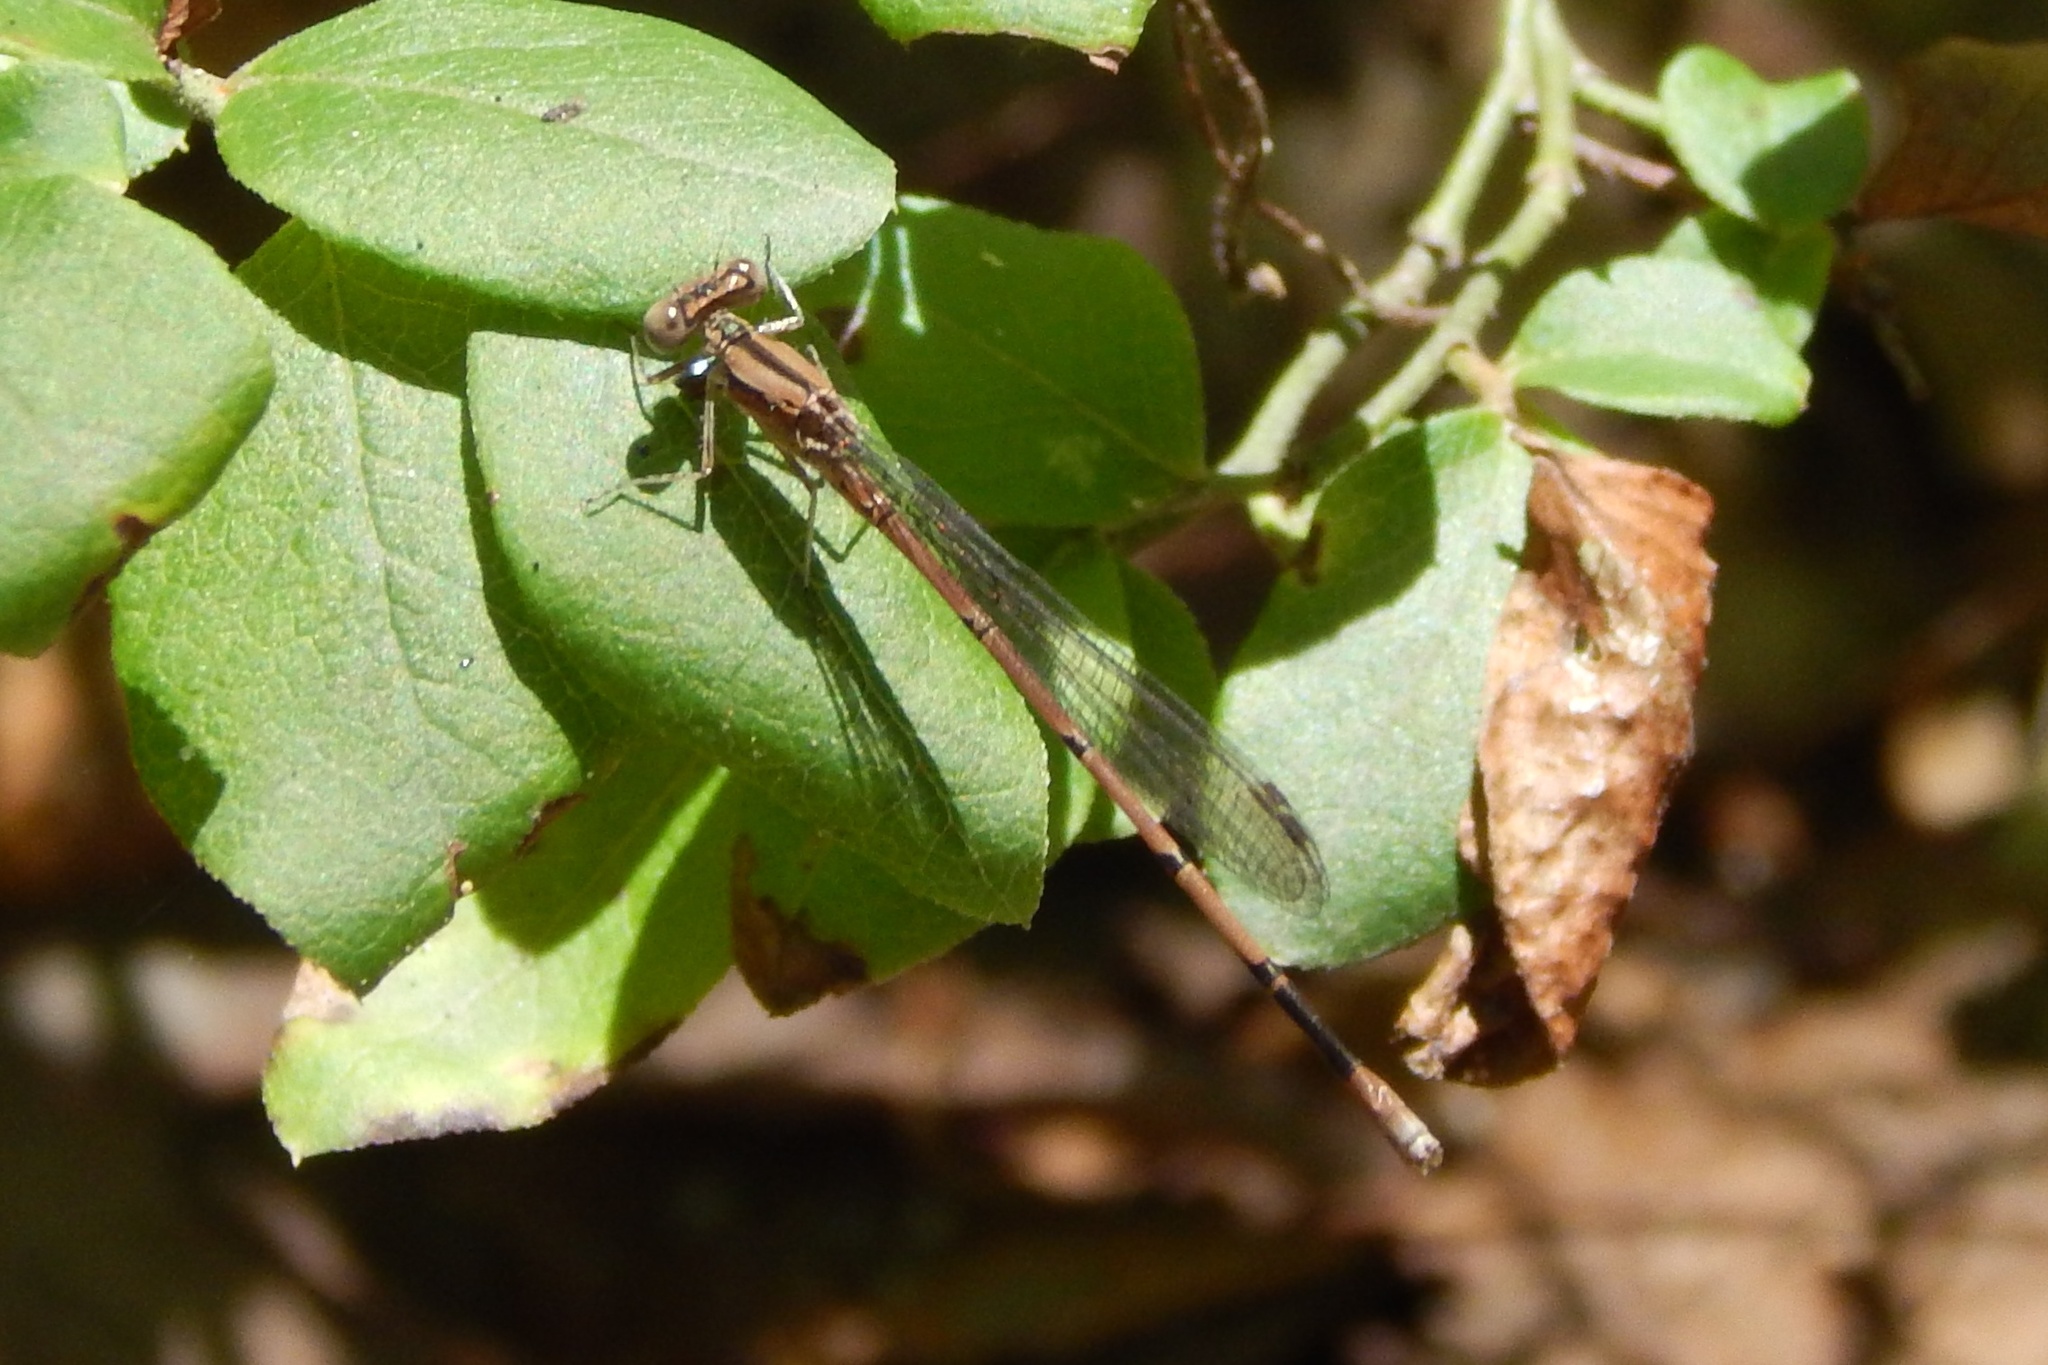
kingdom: Animalia
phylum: Arthropoda
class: Insecta
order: Odonata
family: Coenagrionidae
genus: Argia
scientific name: Argia fumipennis
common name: Variable dancer
